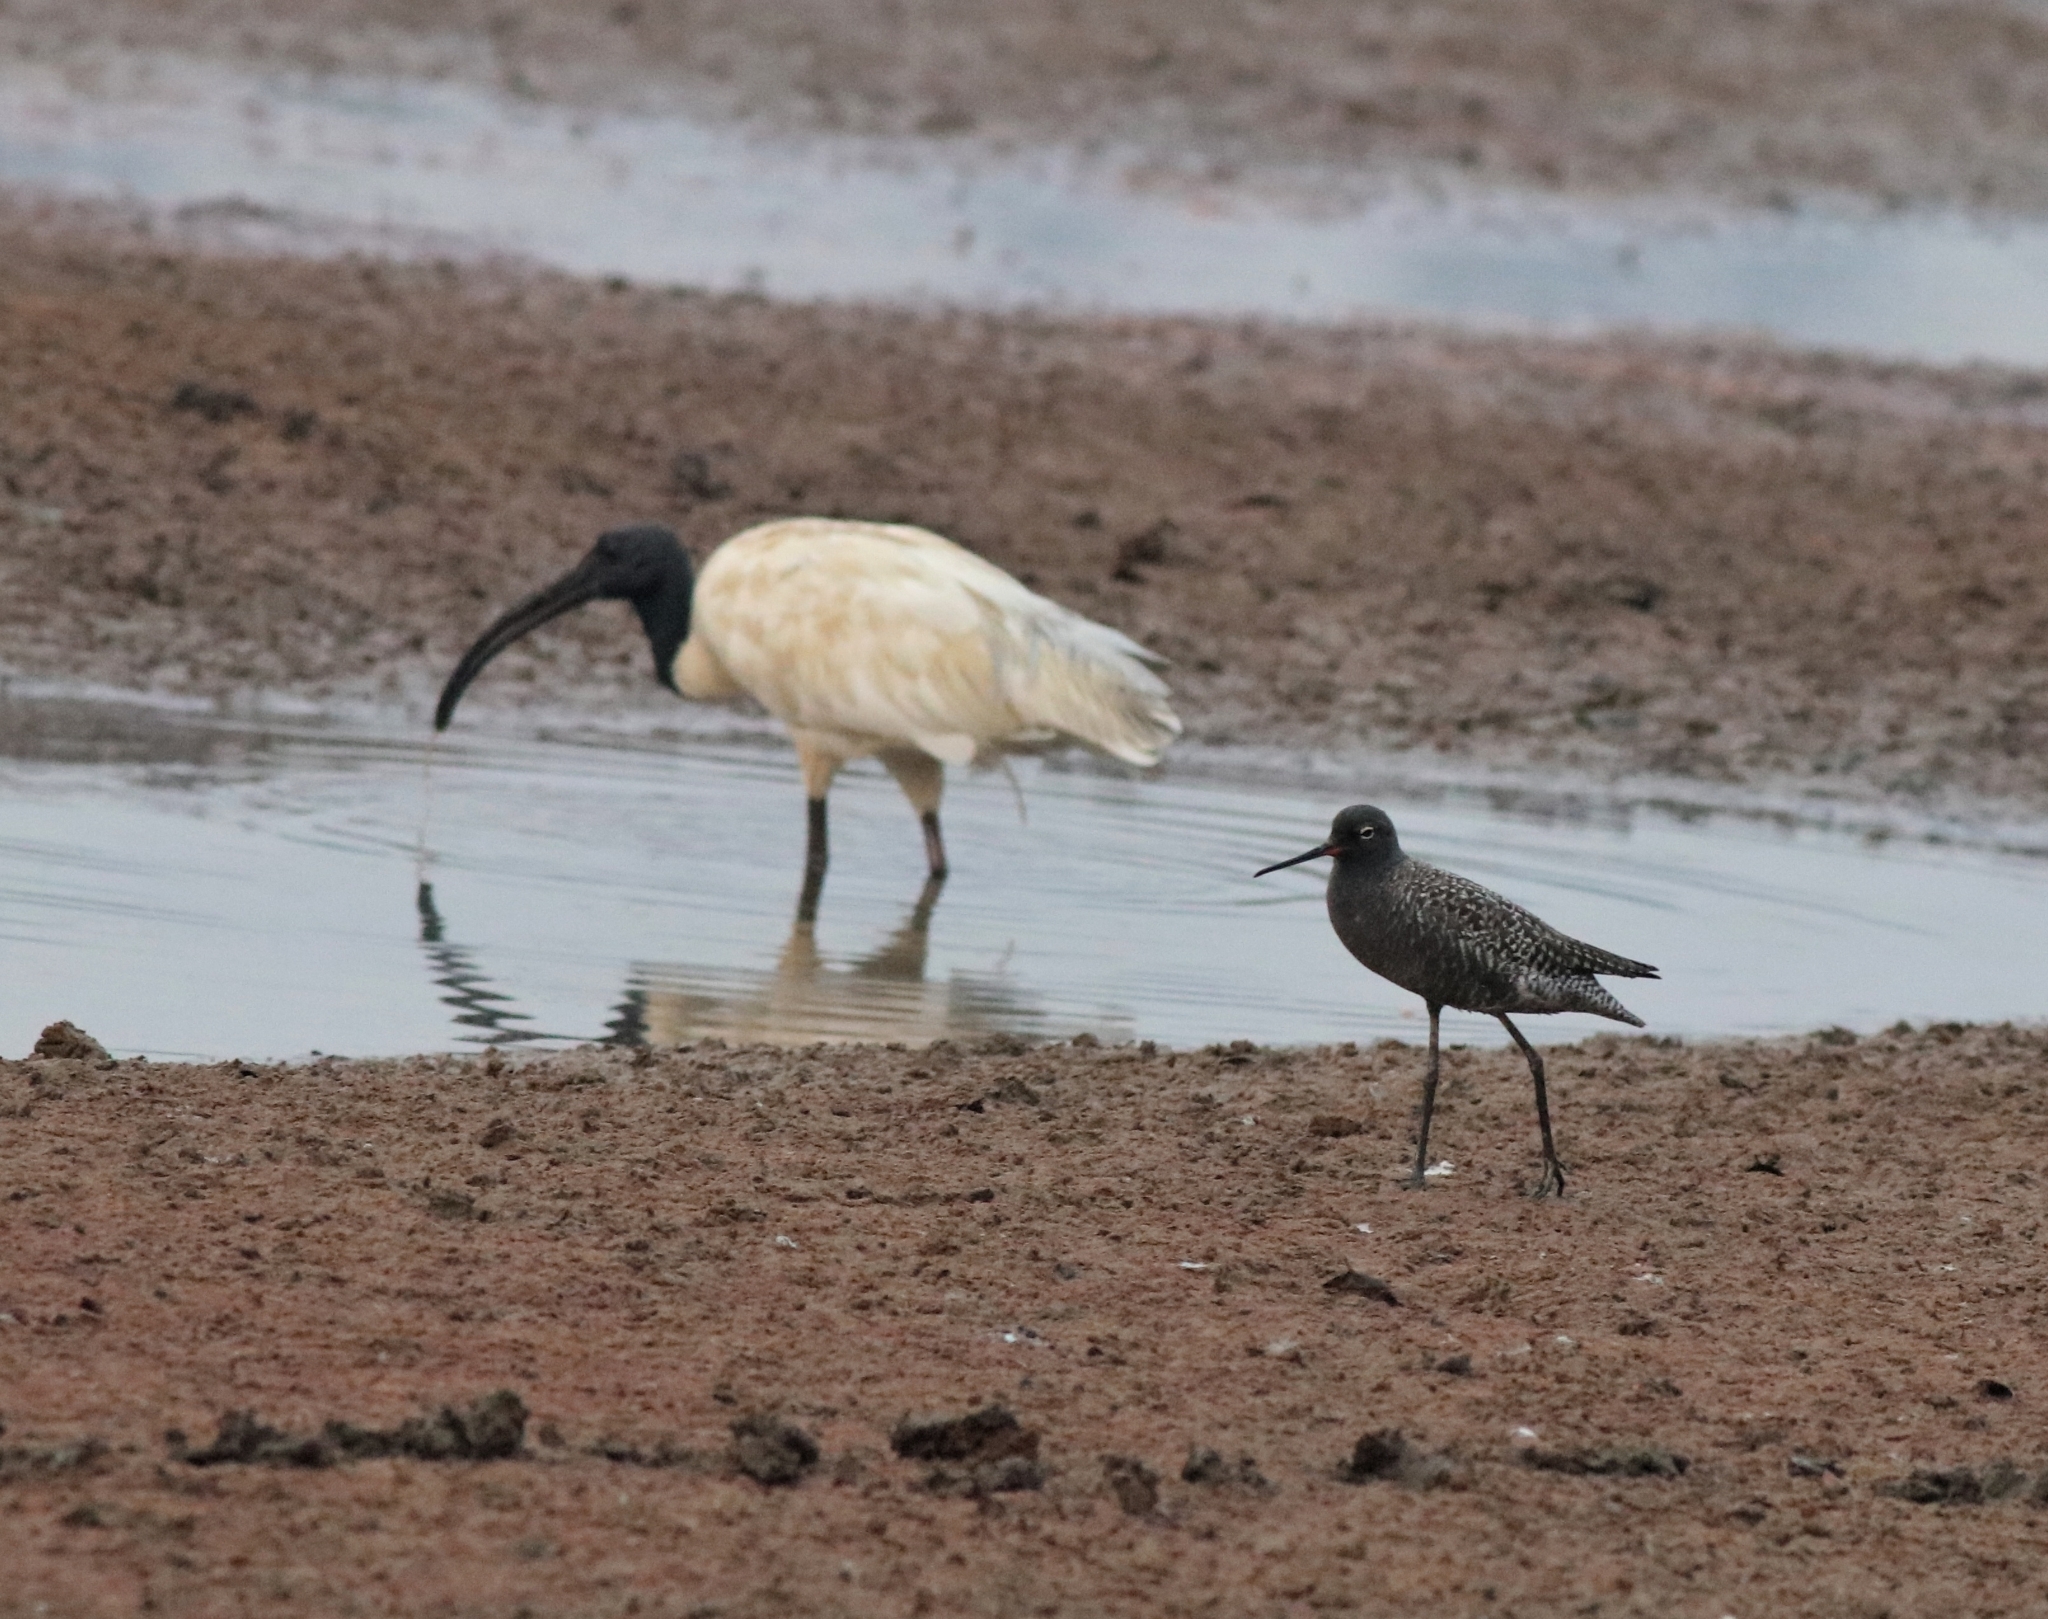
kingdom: Animalia
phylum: Chordata
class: Aves
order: Charadriiformes
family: Scolopacidae
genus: Tringa
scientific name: Tringa erythropus
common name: Spotted redshank
